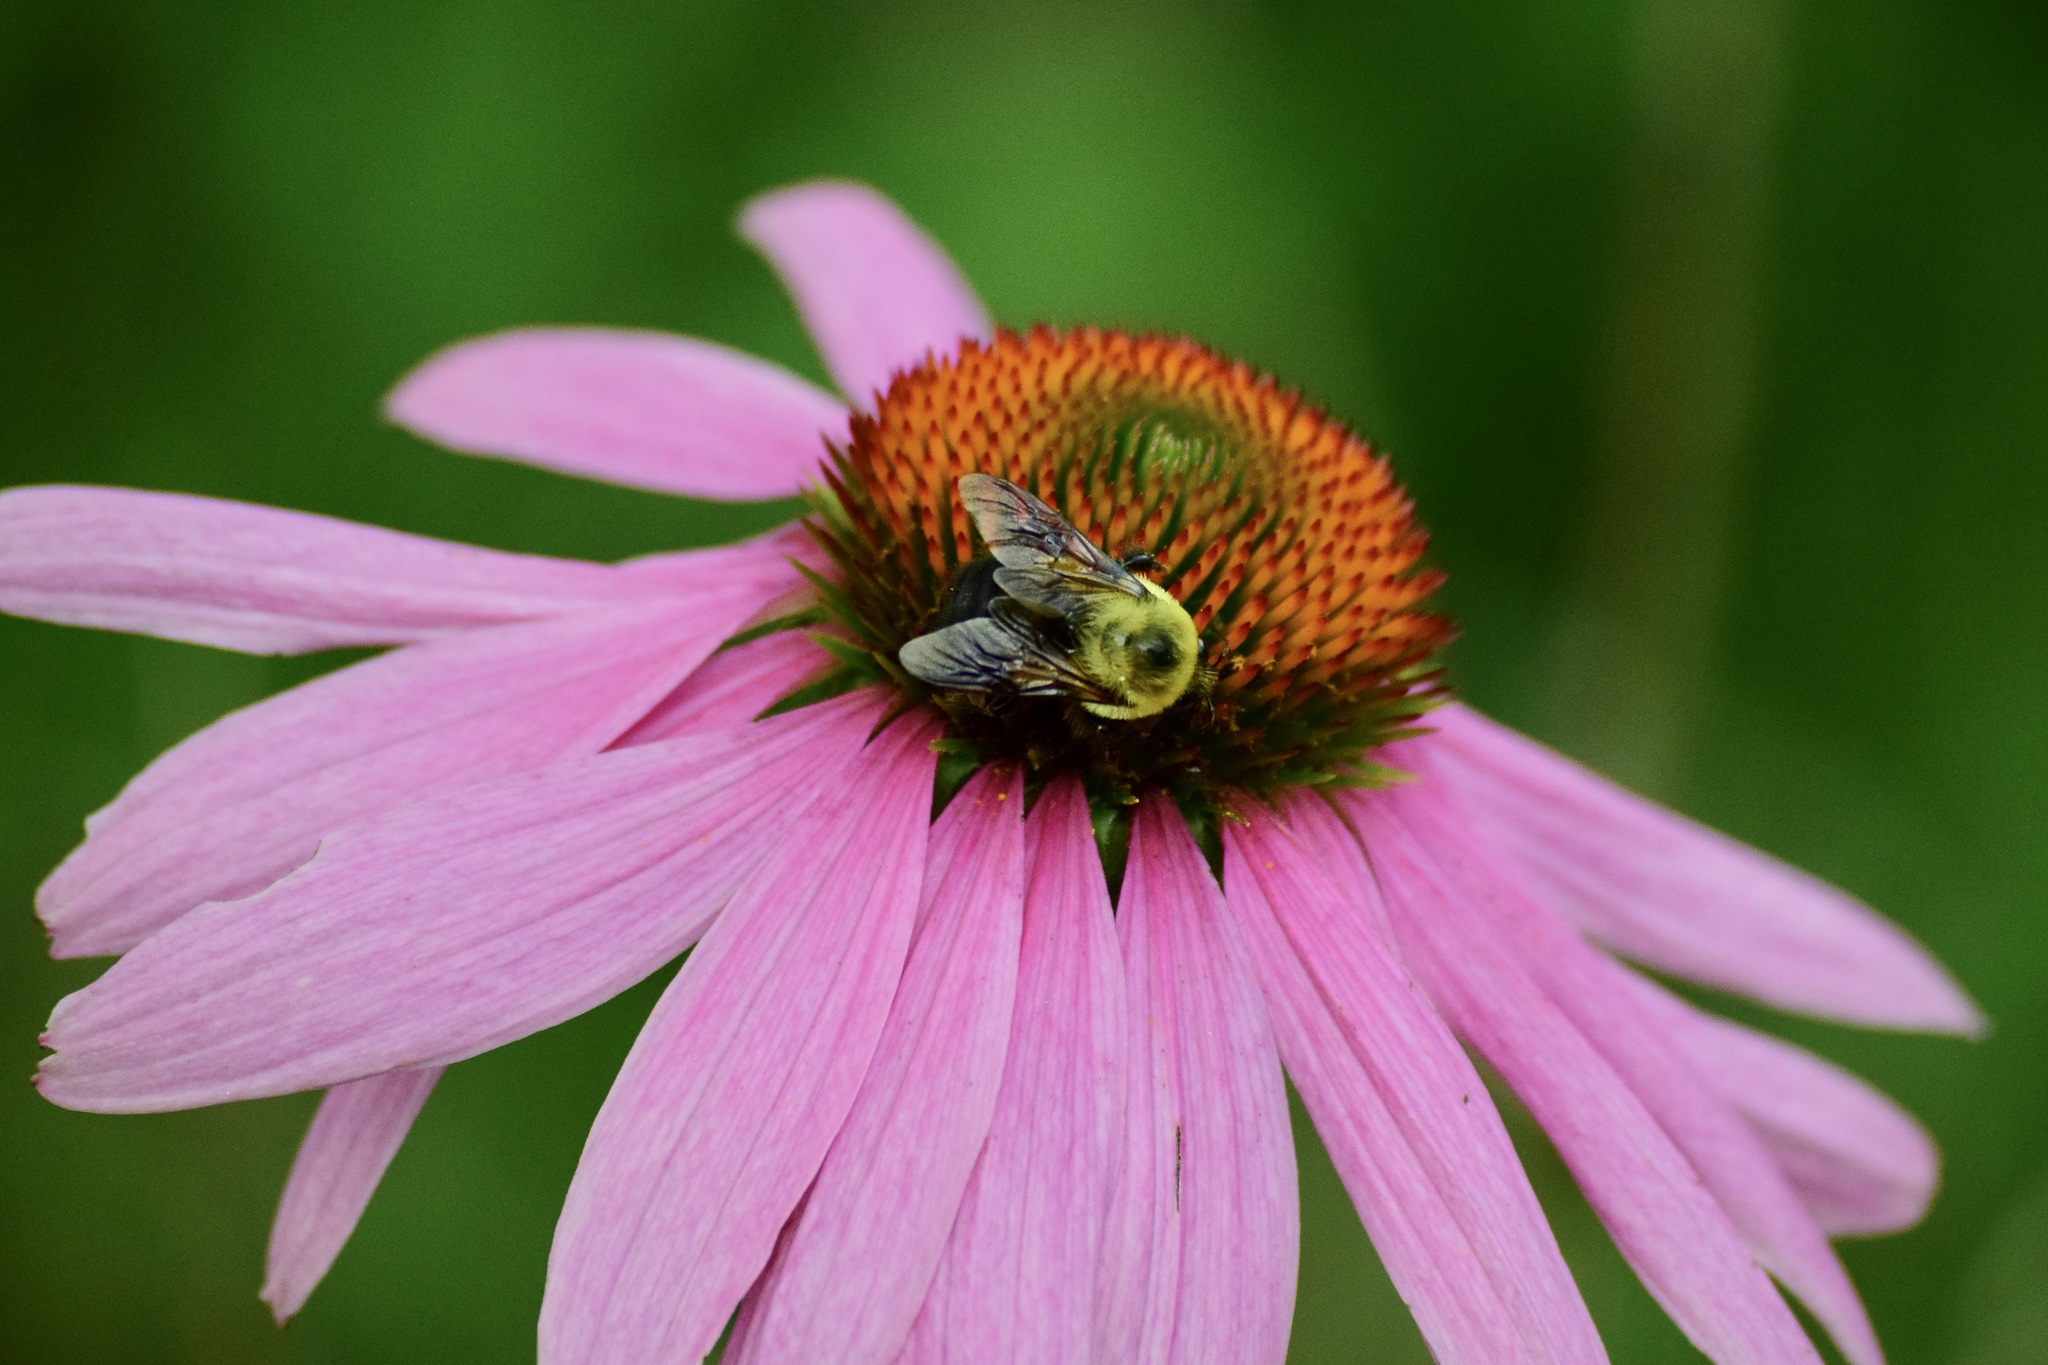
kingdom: Animalia
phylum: Arthropoda
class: Insecta
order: Hymenoptera
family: Apidae
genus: Bombus
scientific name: Bombus griseocollis
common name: Brown-belted bumble bee
